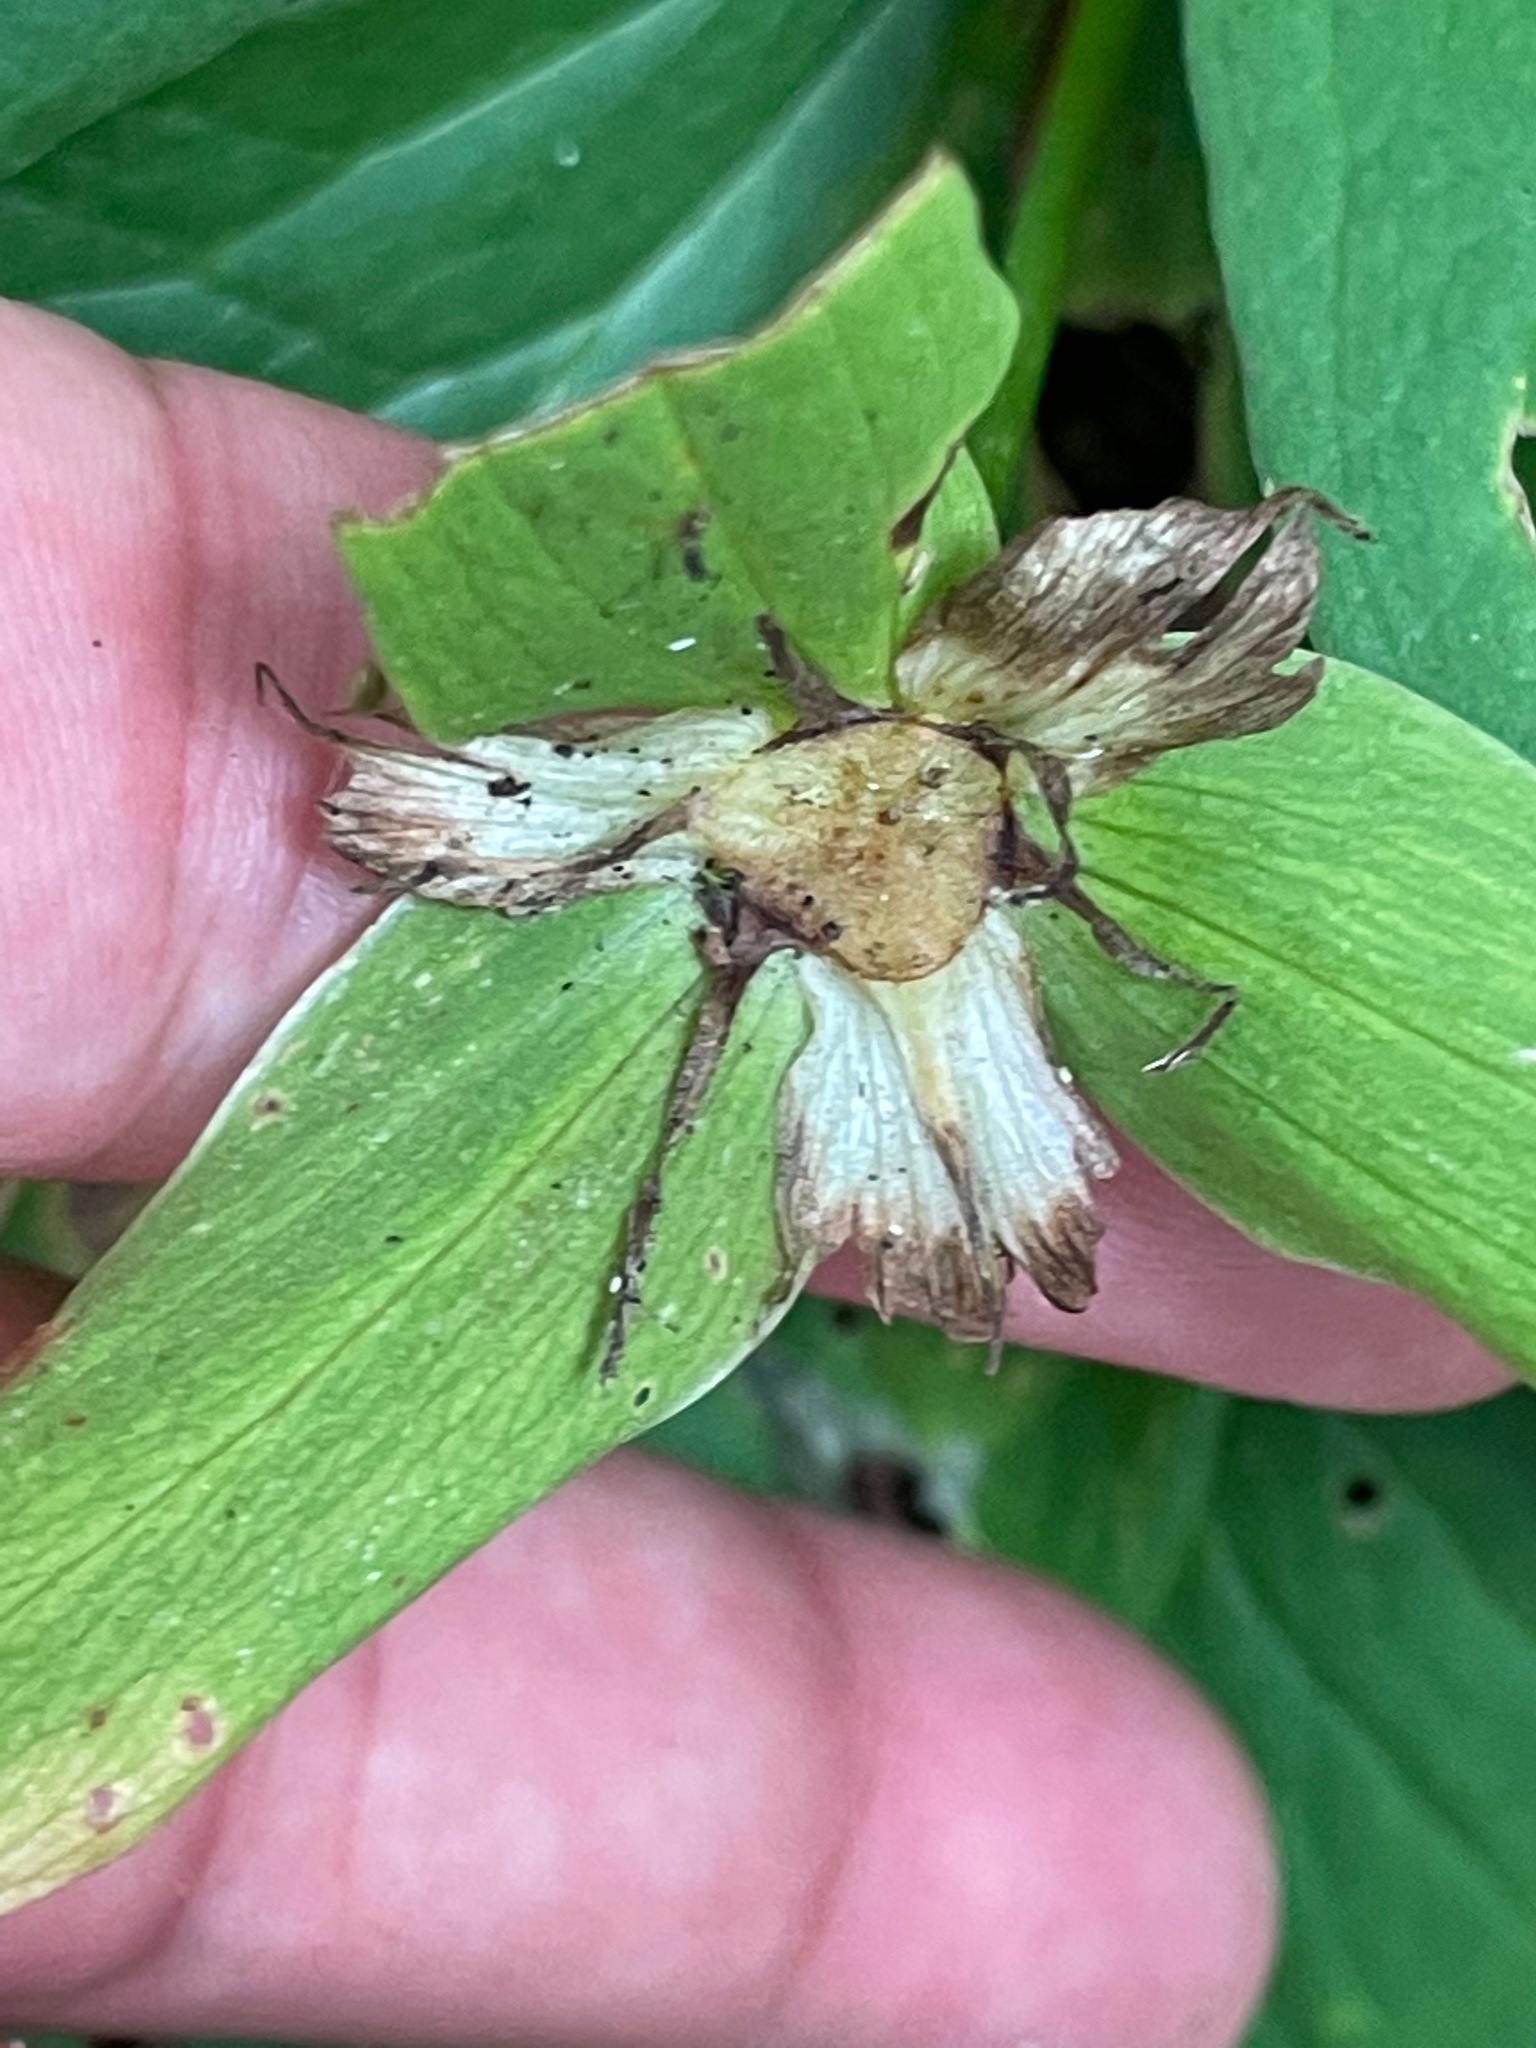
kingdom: Plantae
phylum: Tracheophyta
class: Liliopsida
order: Liliales
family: Melanthiaceae
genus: Trillium
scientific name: Trillium grandiflorum
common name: Great white trillium
